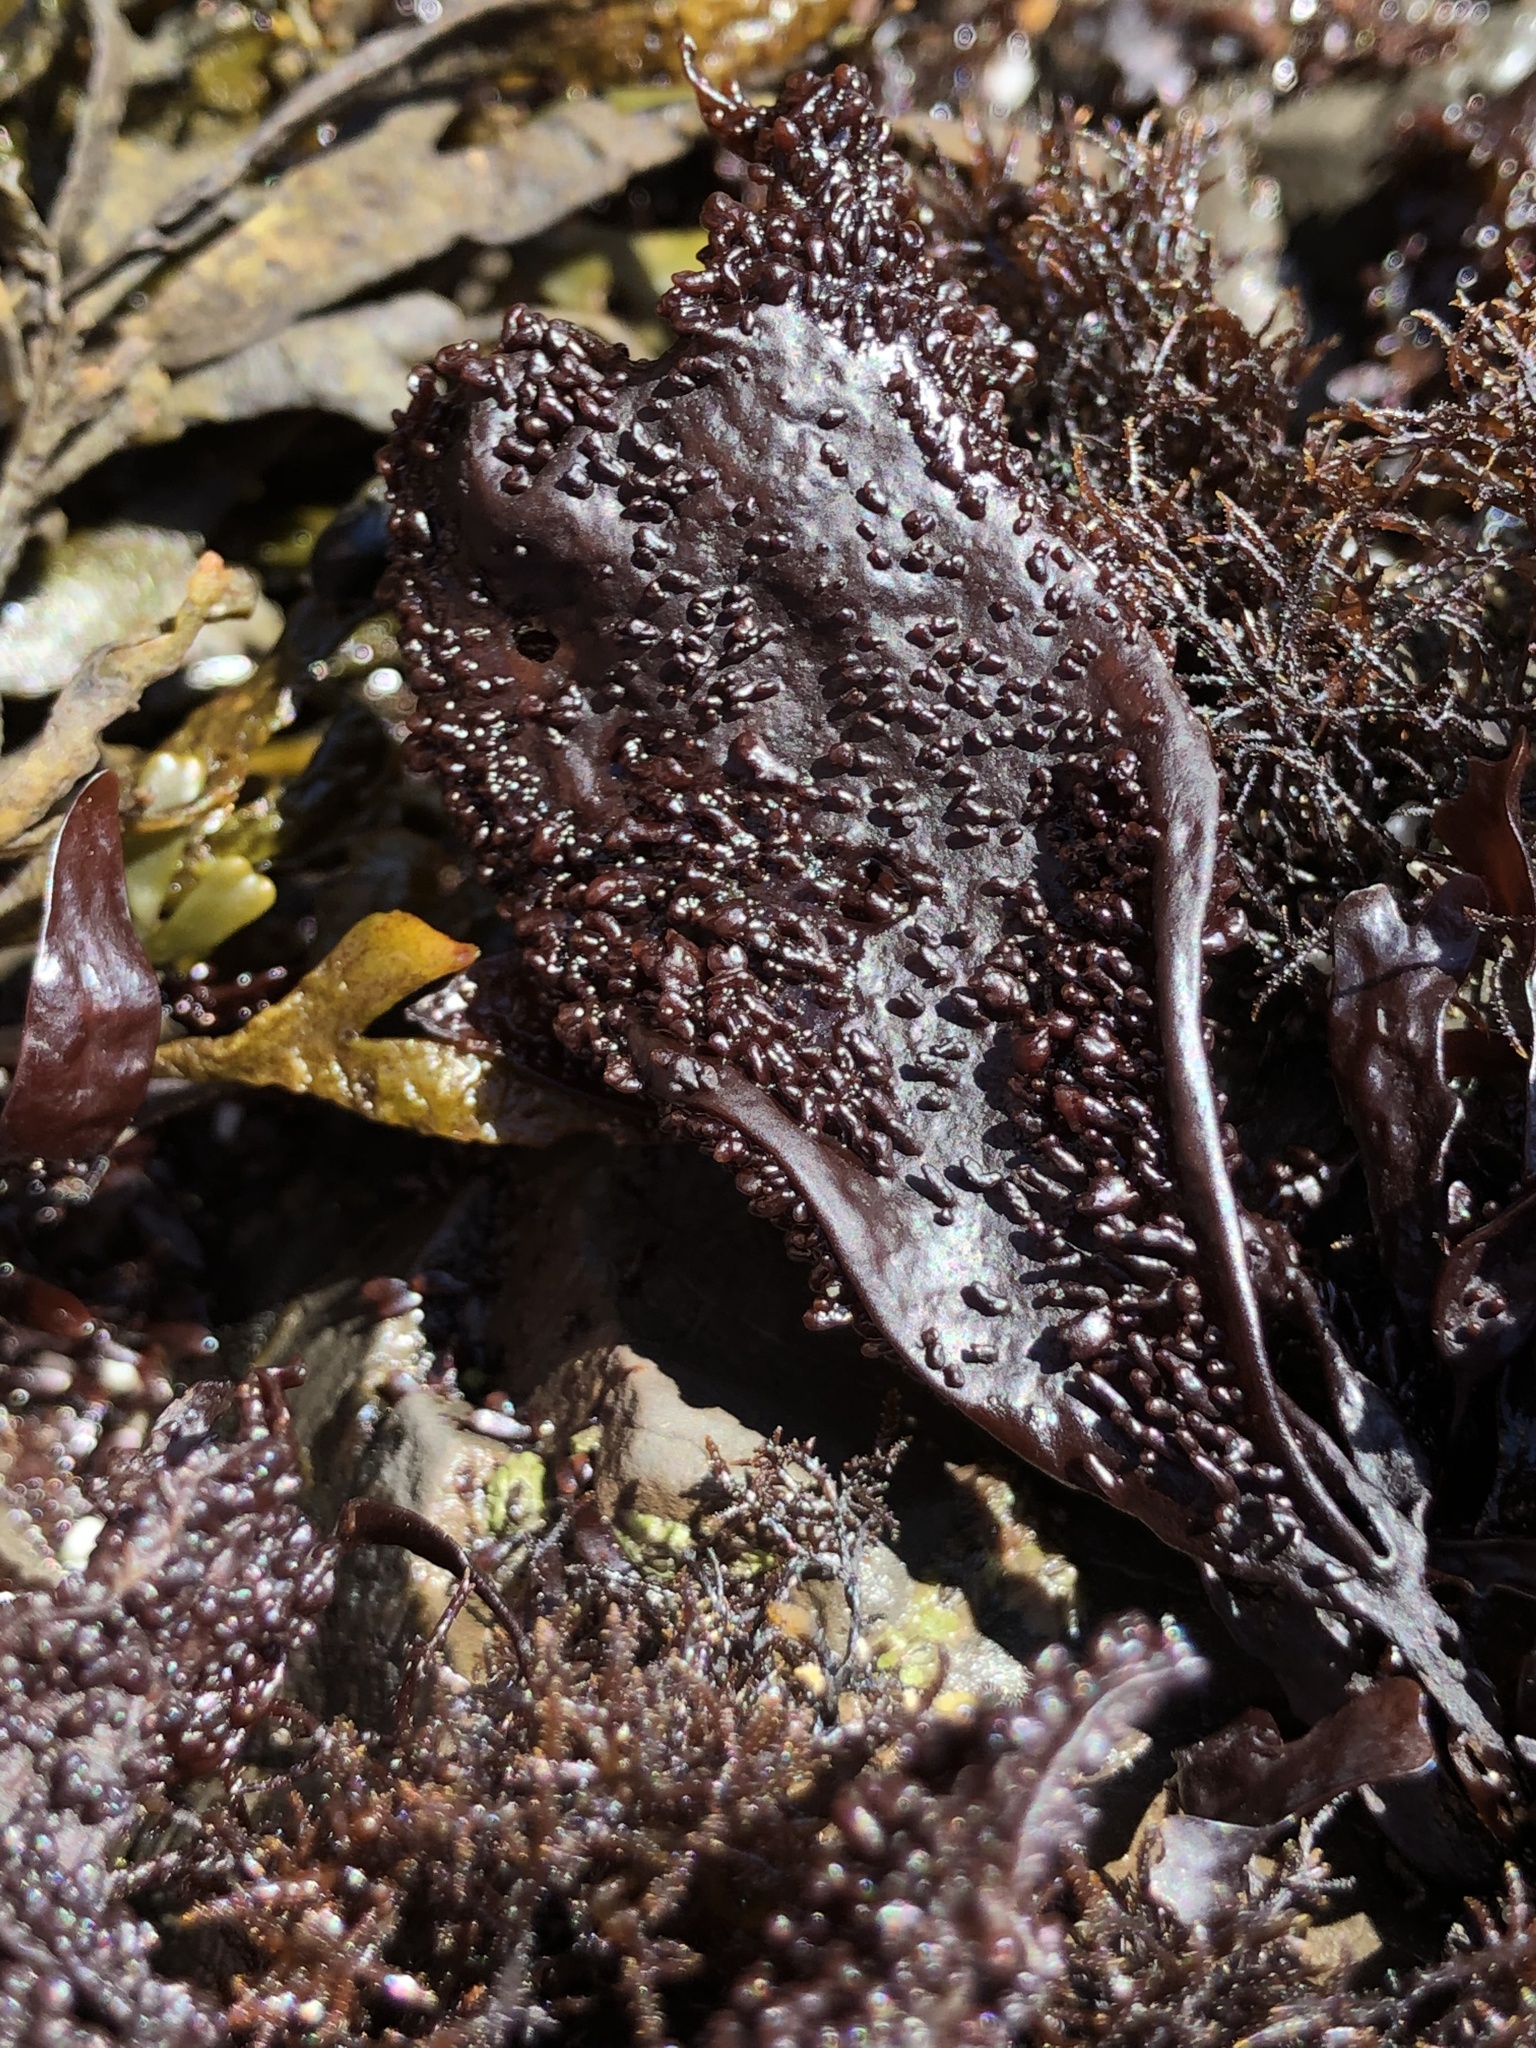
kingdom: Plantae
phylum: Rhodophyta
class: Florideophyceae
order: Gigartinales
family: Phyllophoraceae
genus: Mastocarpus
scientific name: Mastocarpus papillatus
